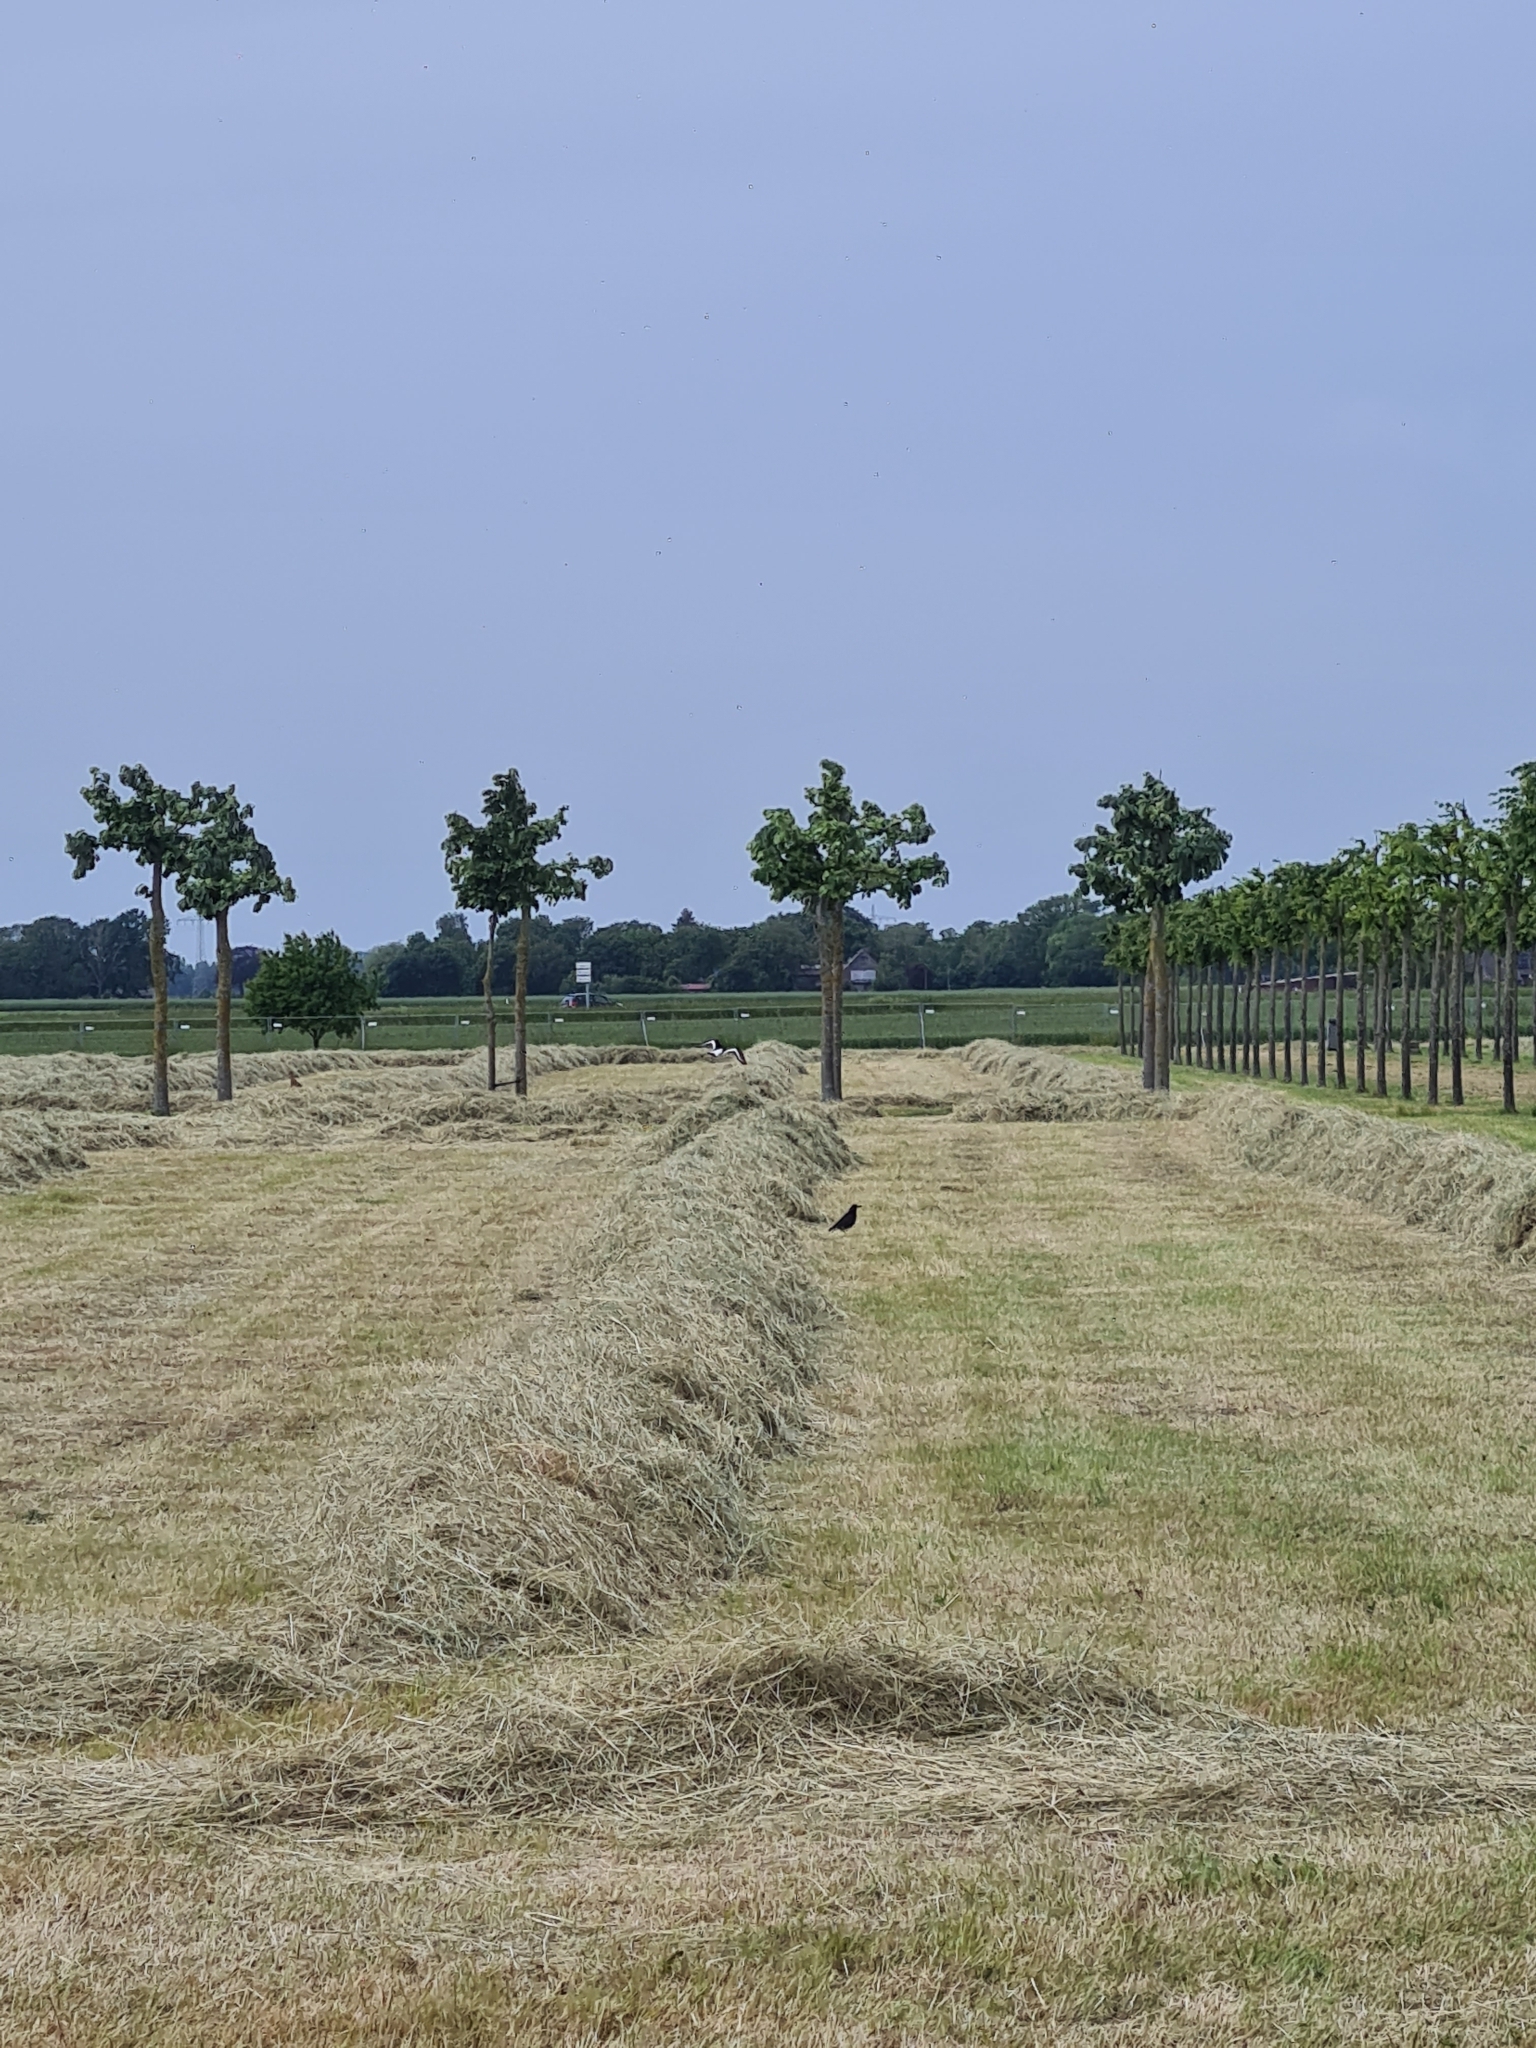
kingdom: Animalia
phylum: Chordata
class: Aves
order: Charadriiformes
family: Haematopodidae
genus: Haematopus
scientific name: Haematopus ostralegus
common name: Eurasian oystercatcher
